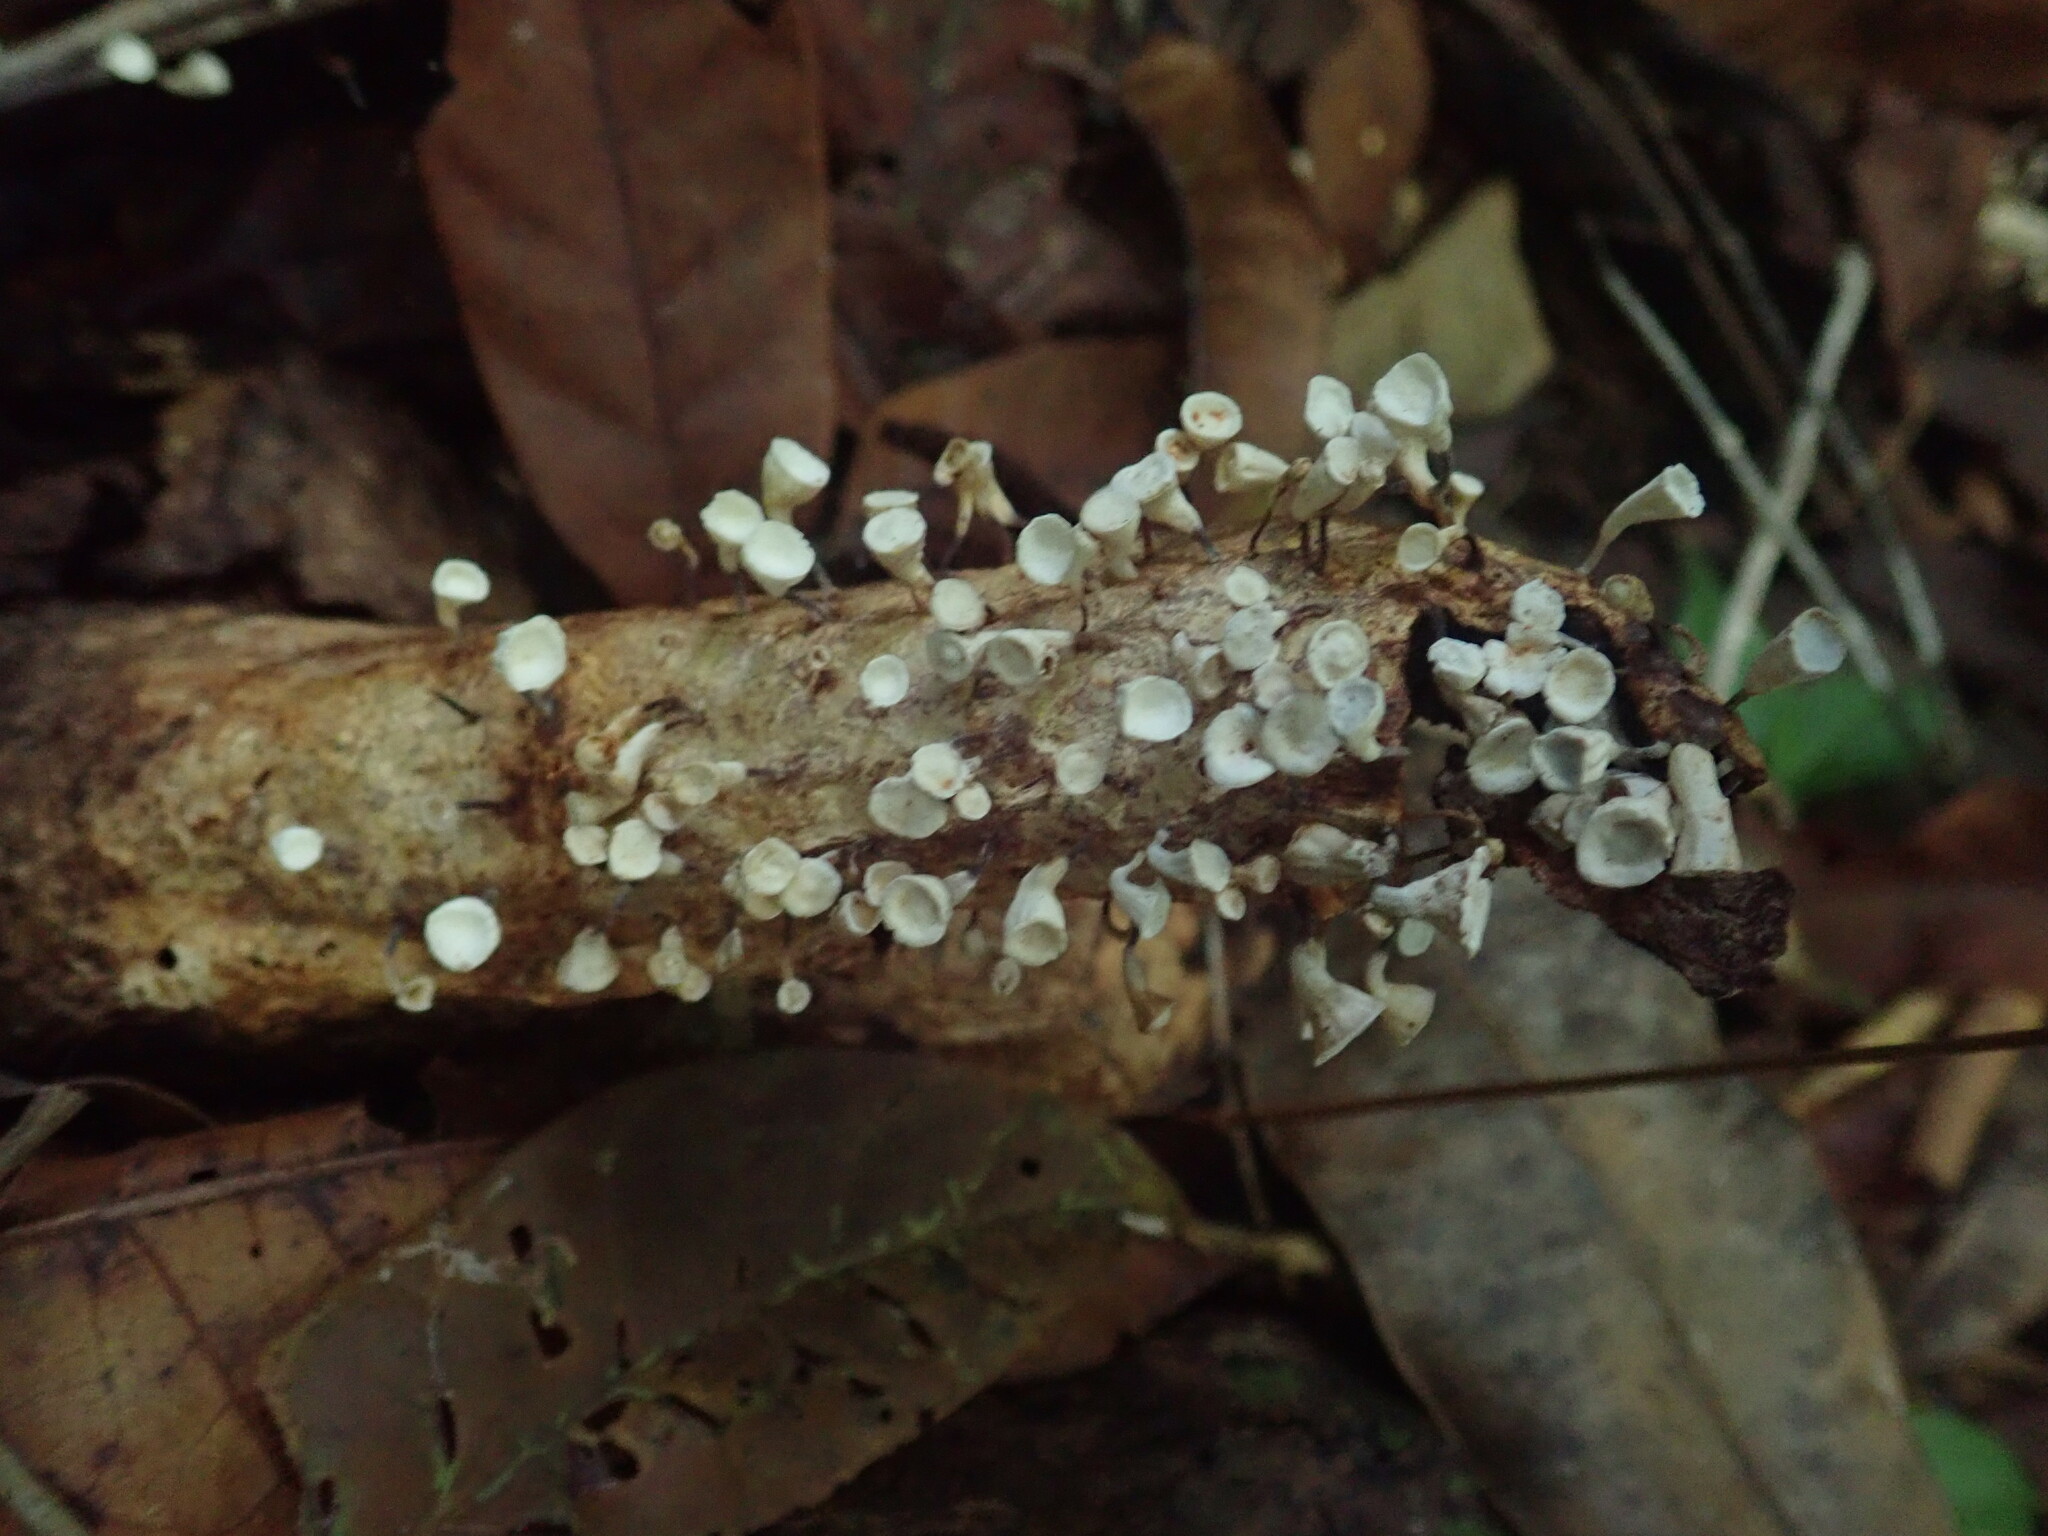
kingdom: Fungi
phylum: Basidiomycota
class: Agaricomycetes
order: Agaricales
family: Omphalotaceae
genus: Gymnopus
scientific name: Gymnopus montagnei
